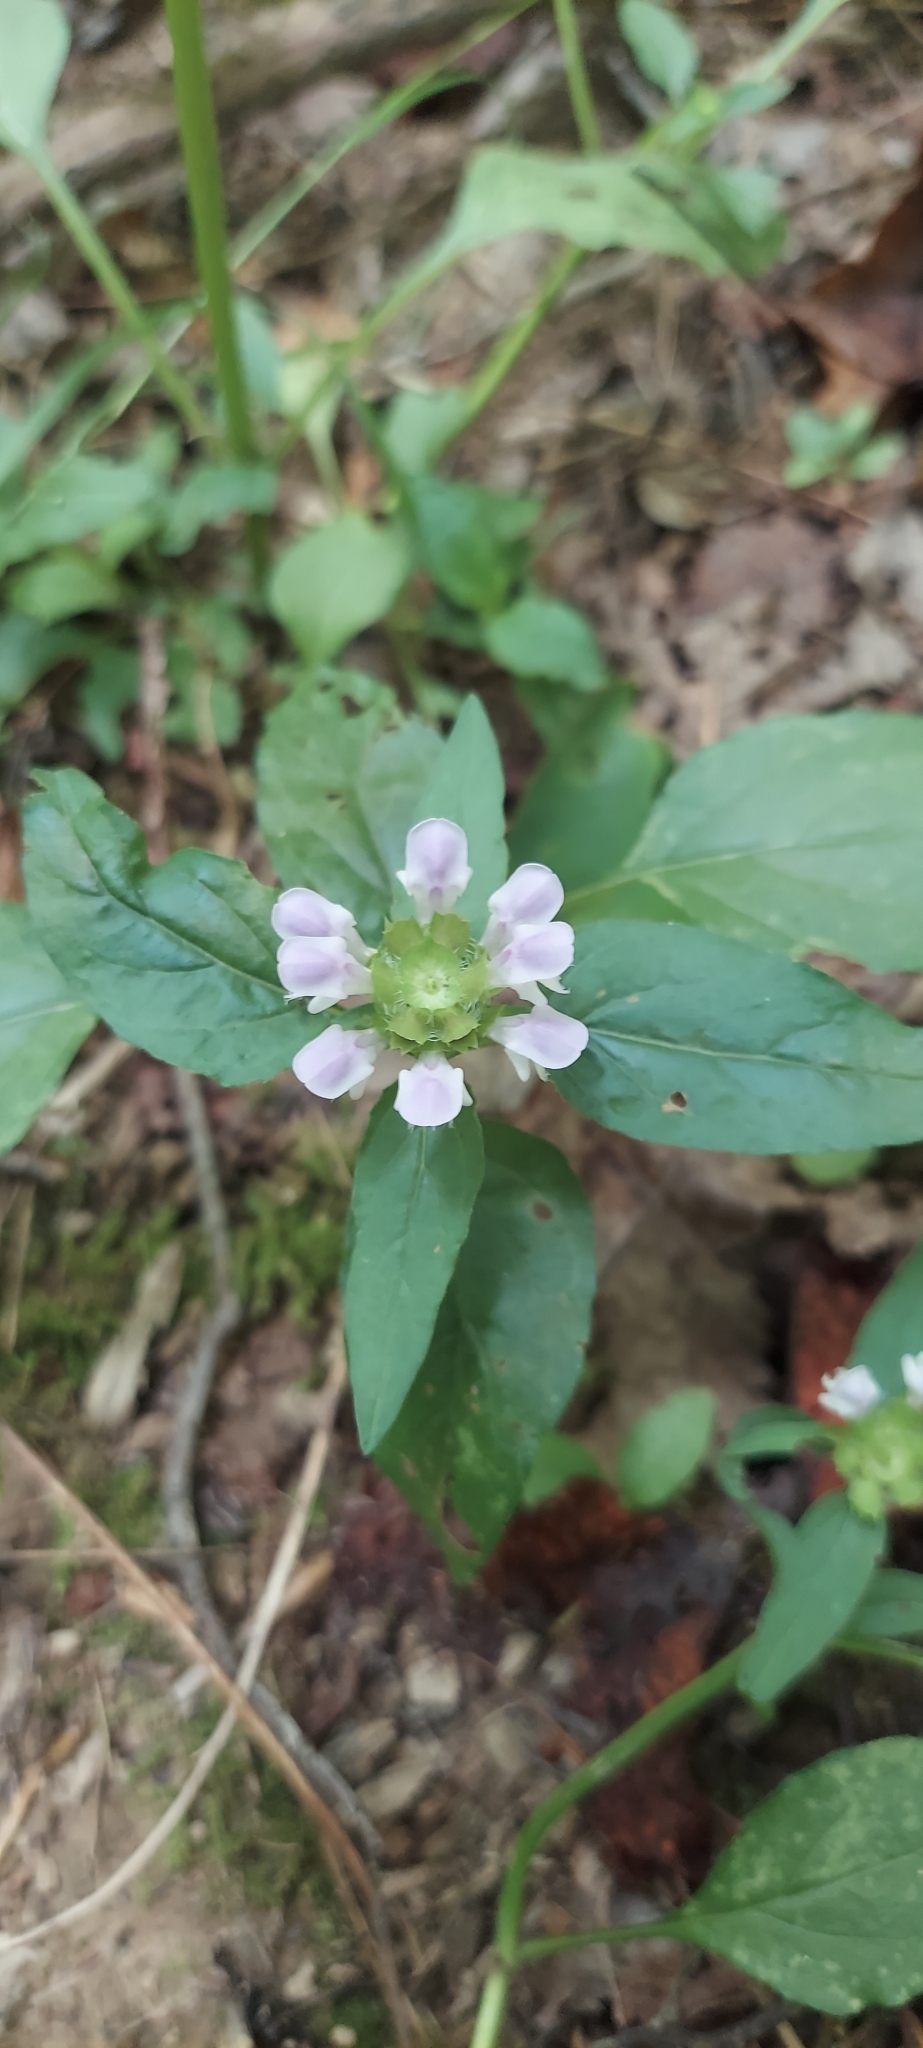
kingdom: Plantae
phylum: Tracheophyta
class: Magnoliopsida
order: Lamiales
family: Lamiaceae
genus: Prunella
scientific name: Prunella vulgaris
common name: Heal-all
